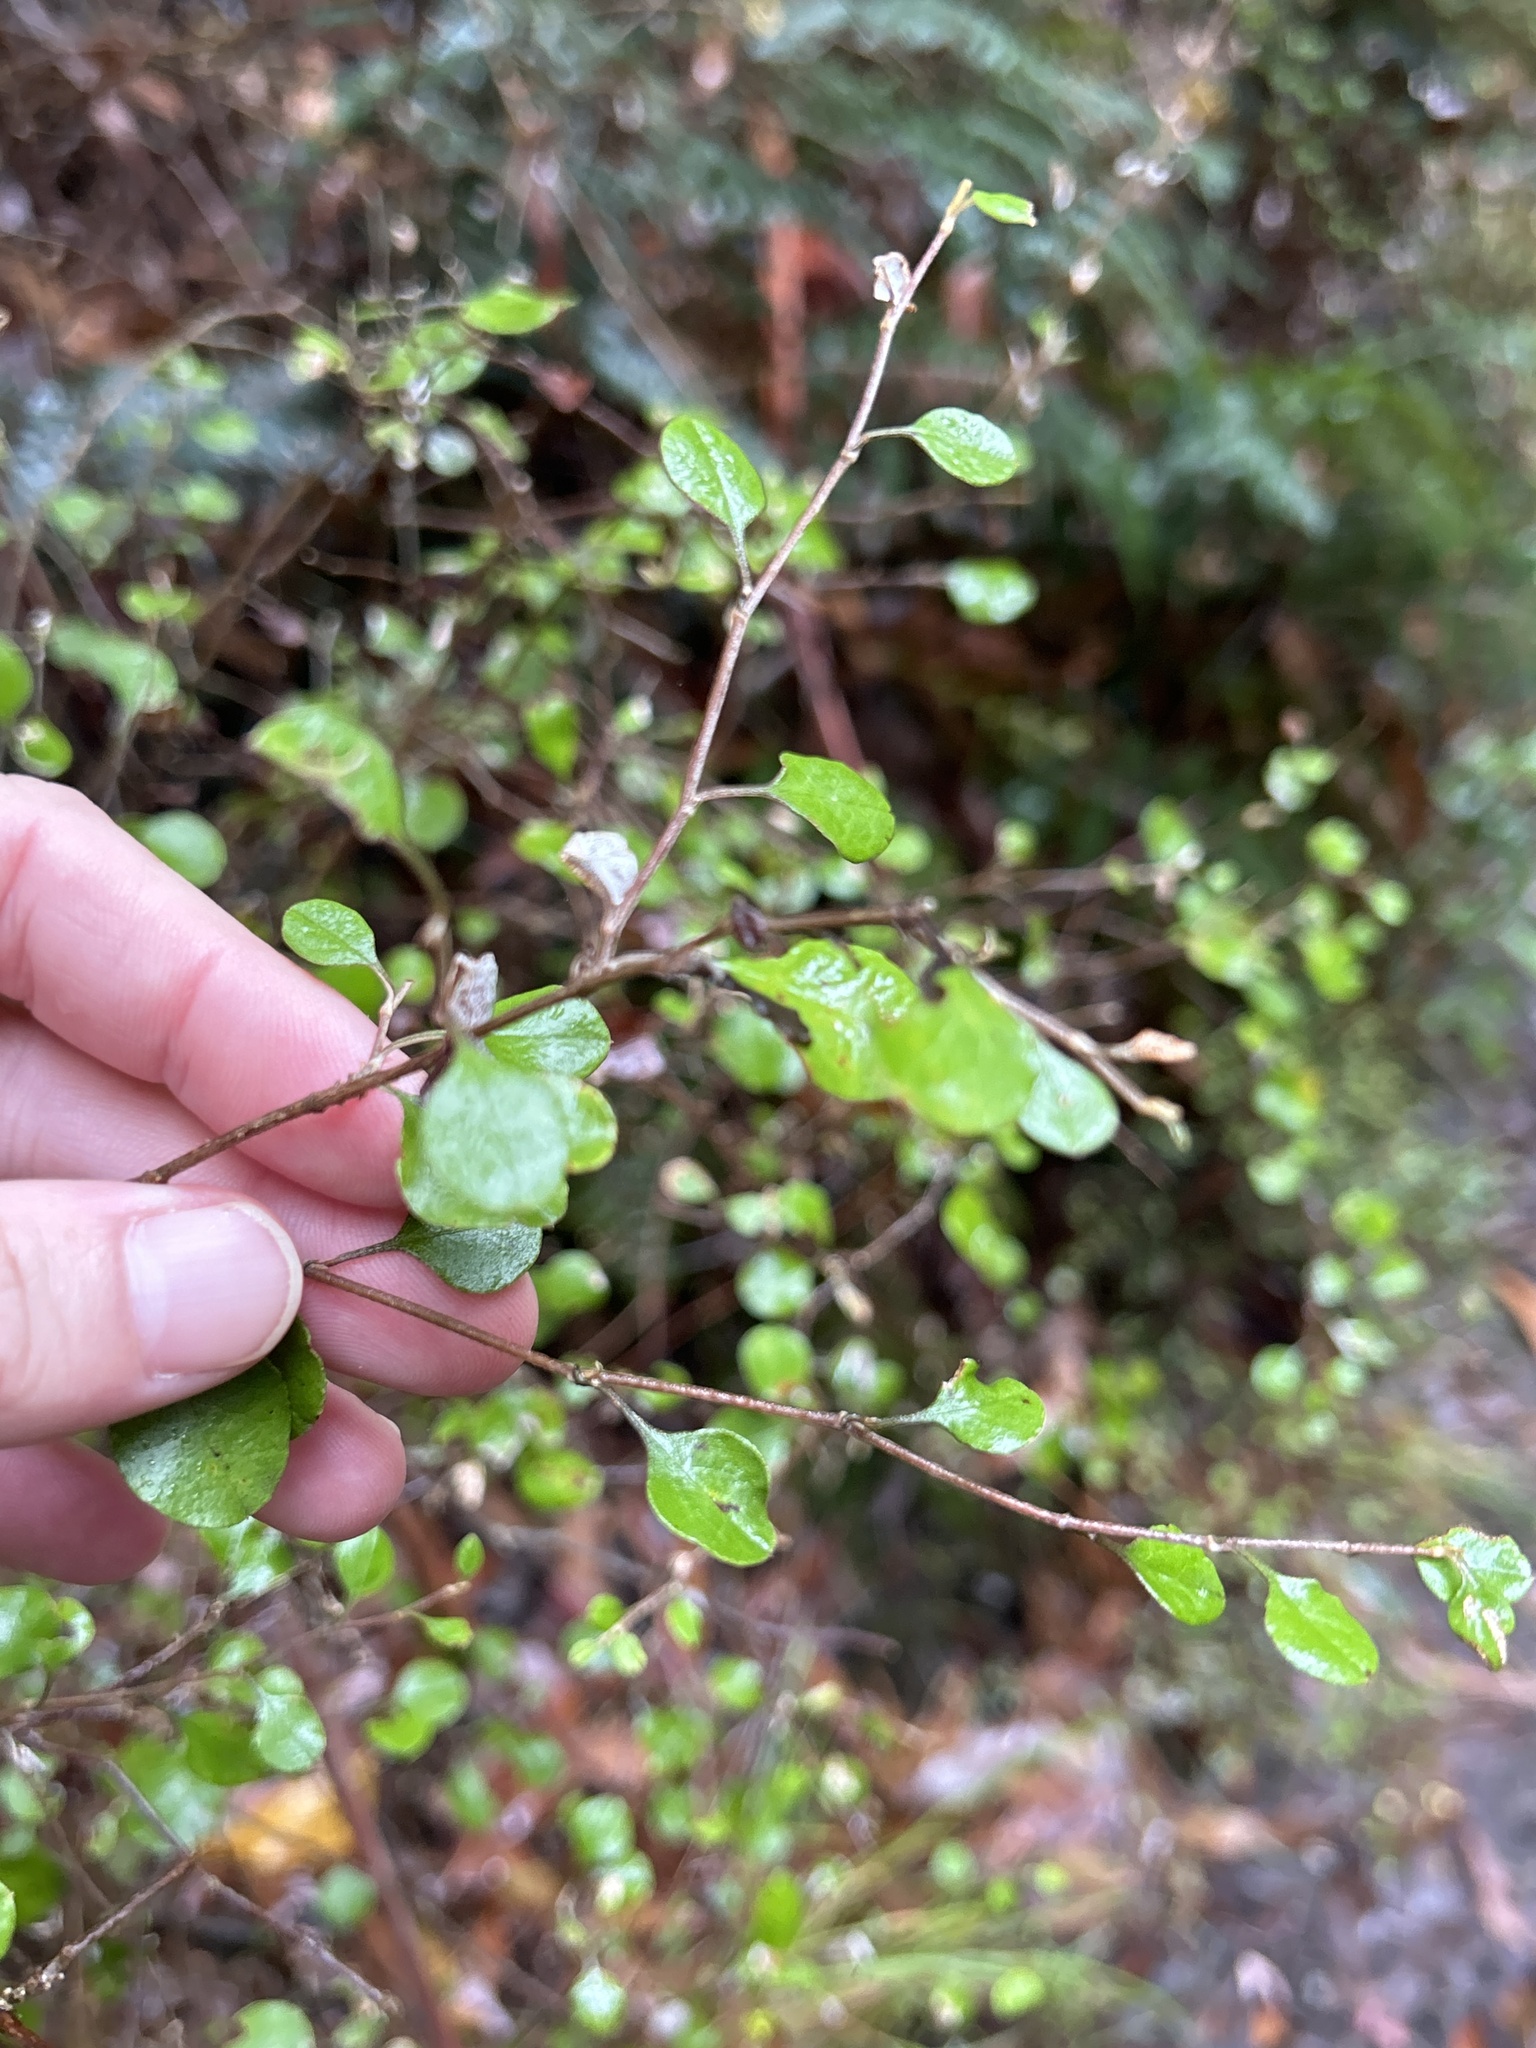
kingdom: Plantae
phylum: Tracheophyta
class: Magnoliopsida
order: Asterales
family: Asteraceae
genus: Ozothamnus
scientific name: Ozothamnus glomeratus
